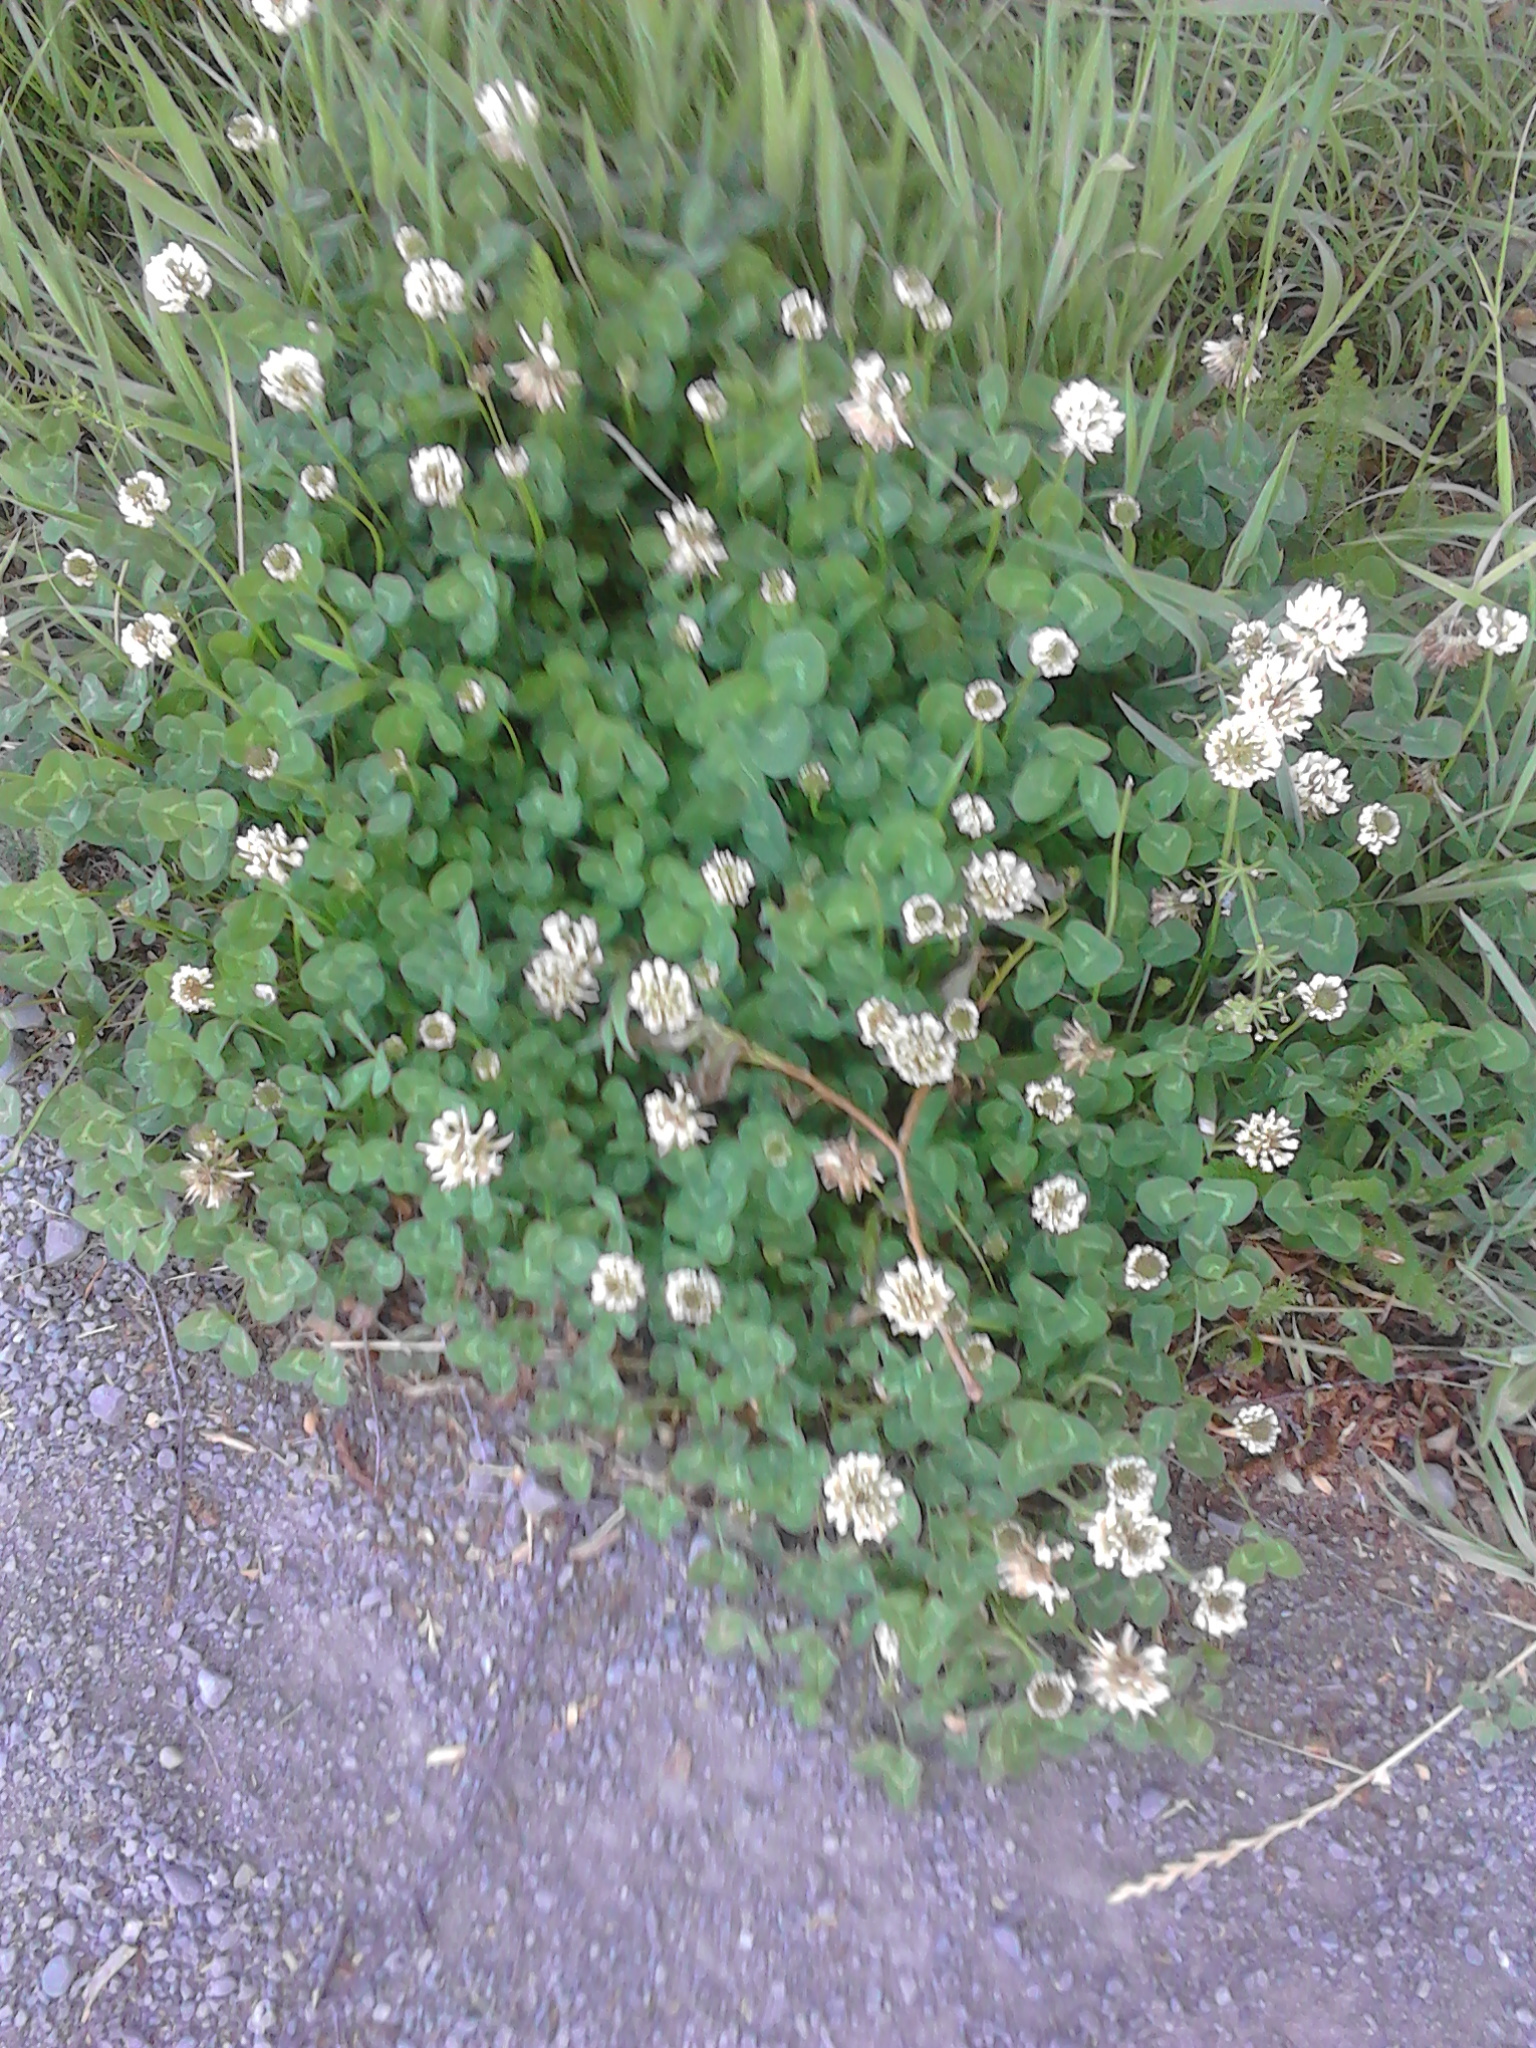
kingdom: Plantae
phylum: Tracheophyta
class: Magnoliopsida
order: Fabales
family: Fabaceae
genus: Trifolium
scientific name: Trifolium repens
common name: White clover
